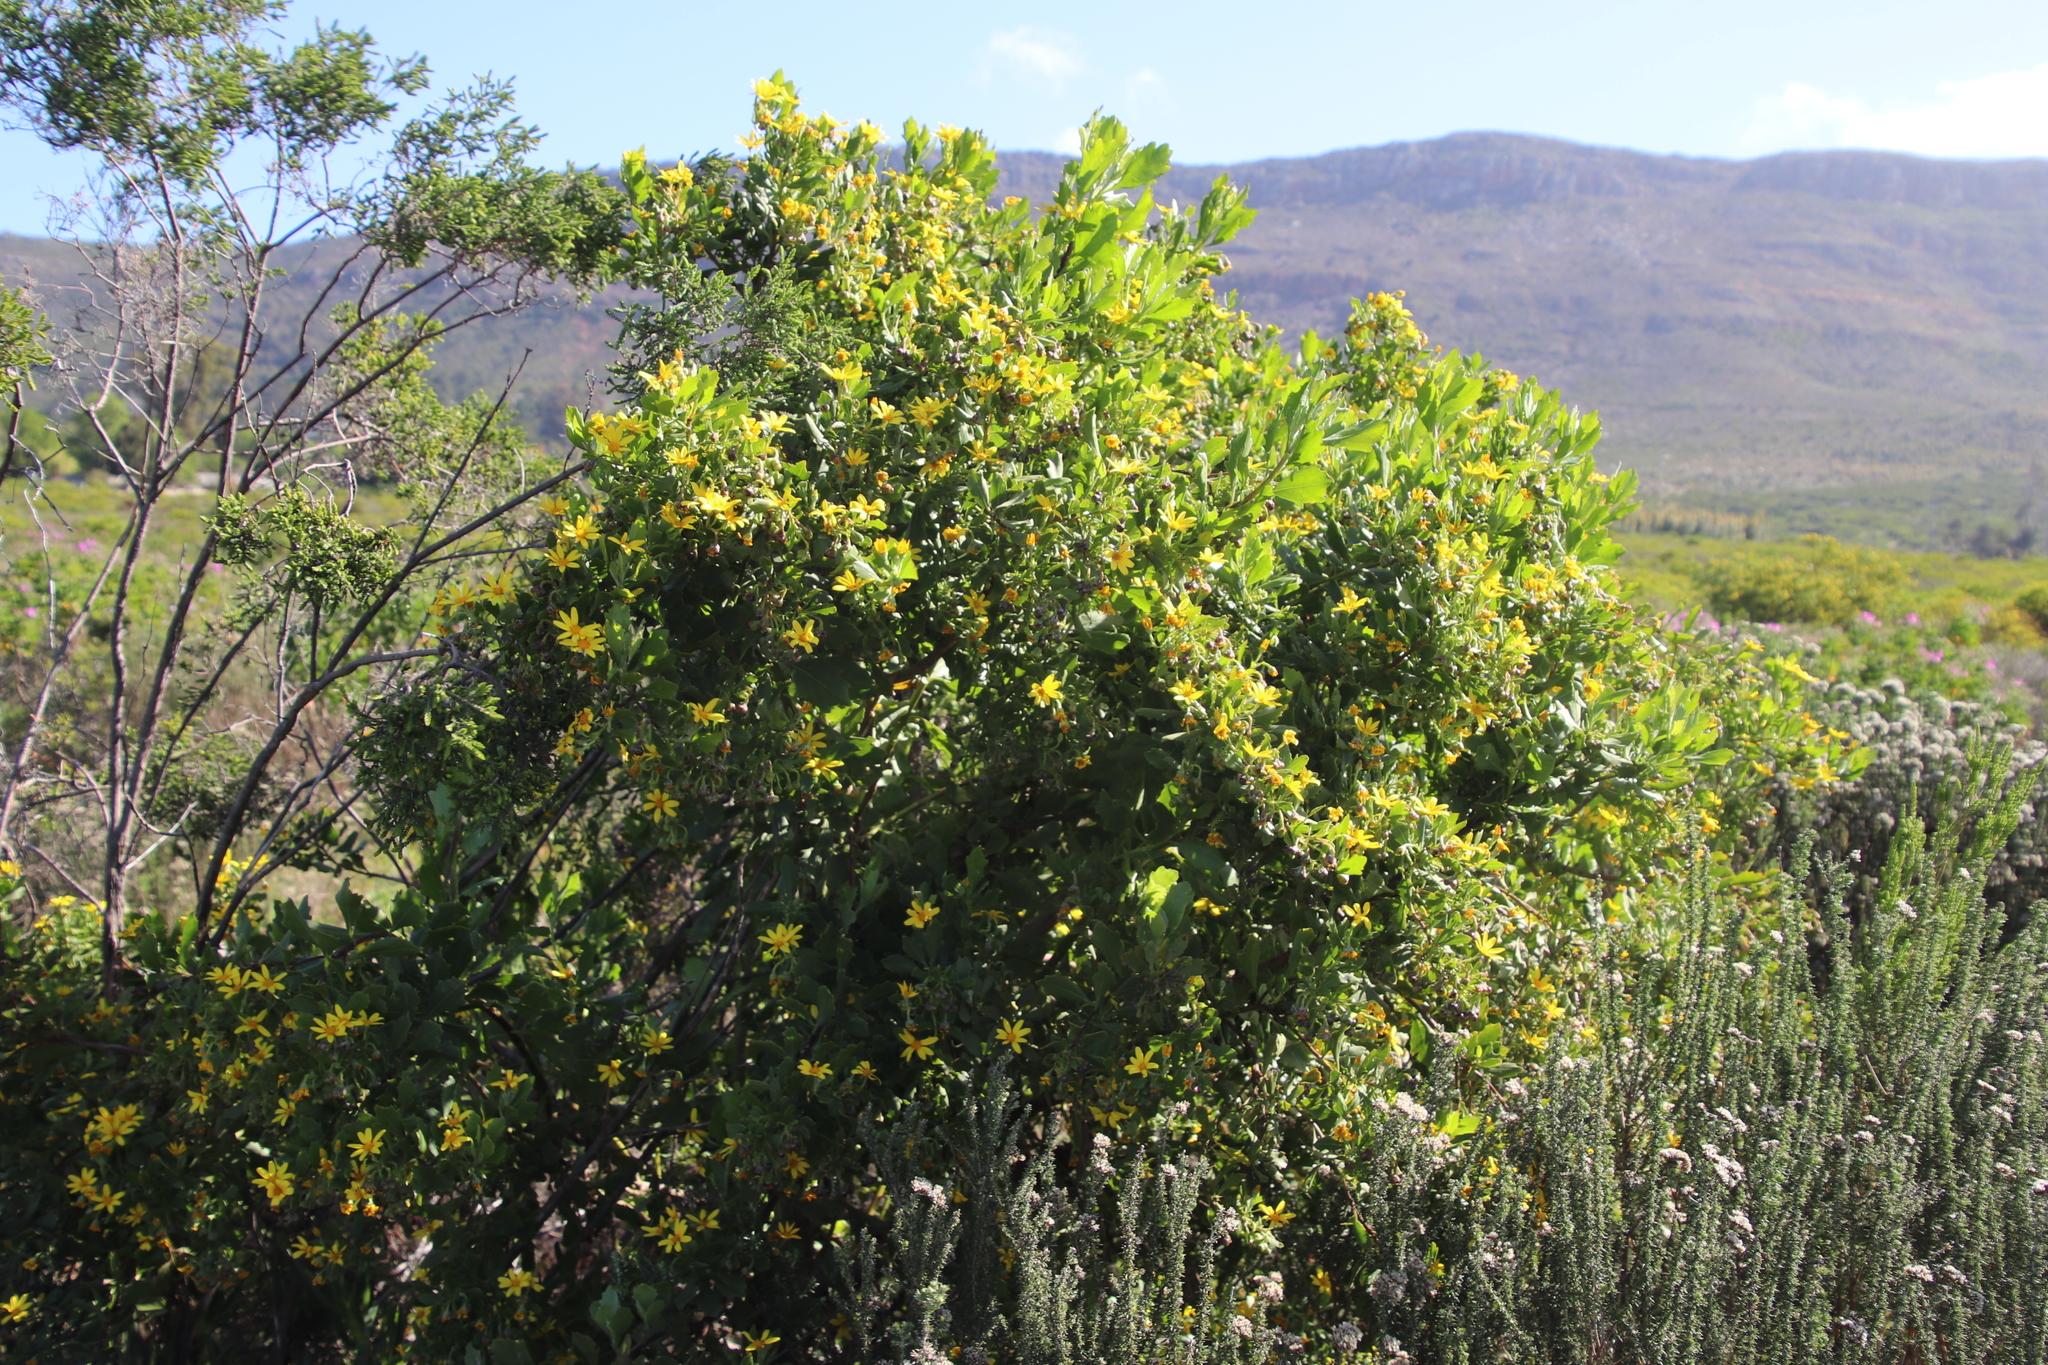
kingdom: Plantae
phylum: Tracheophyta
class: Magnoliopsida
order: Asterales
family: Asteraceae
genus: Osteospermum
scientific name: Osteospermum moniliferum
